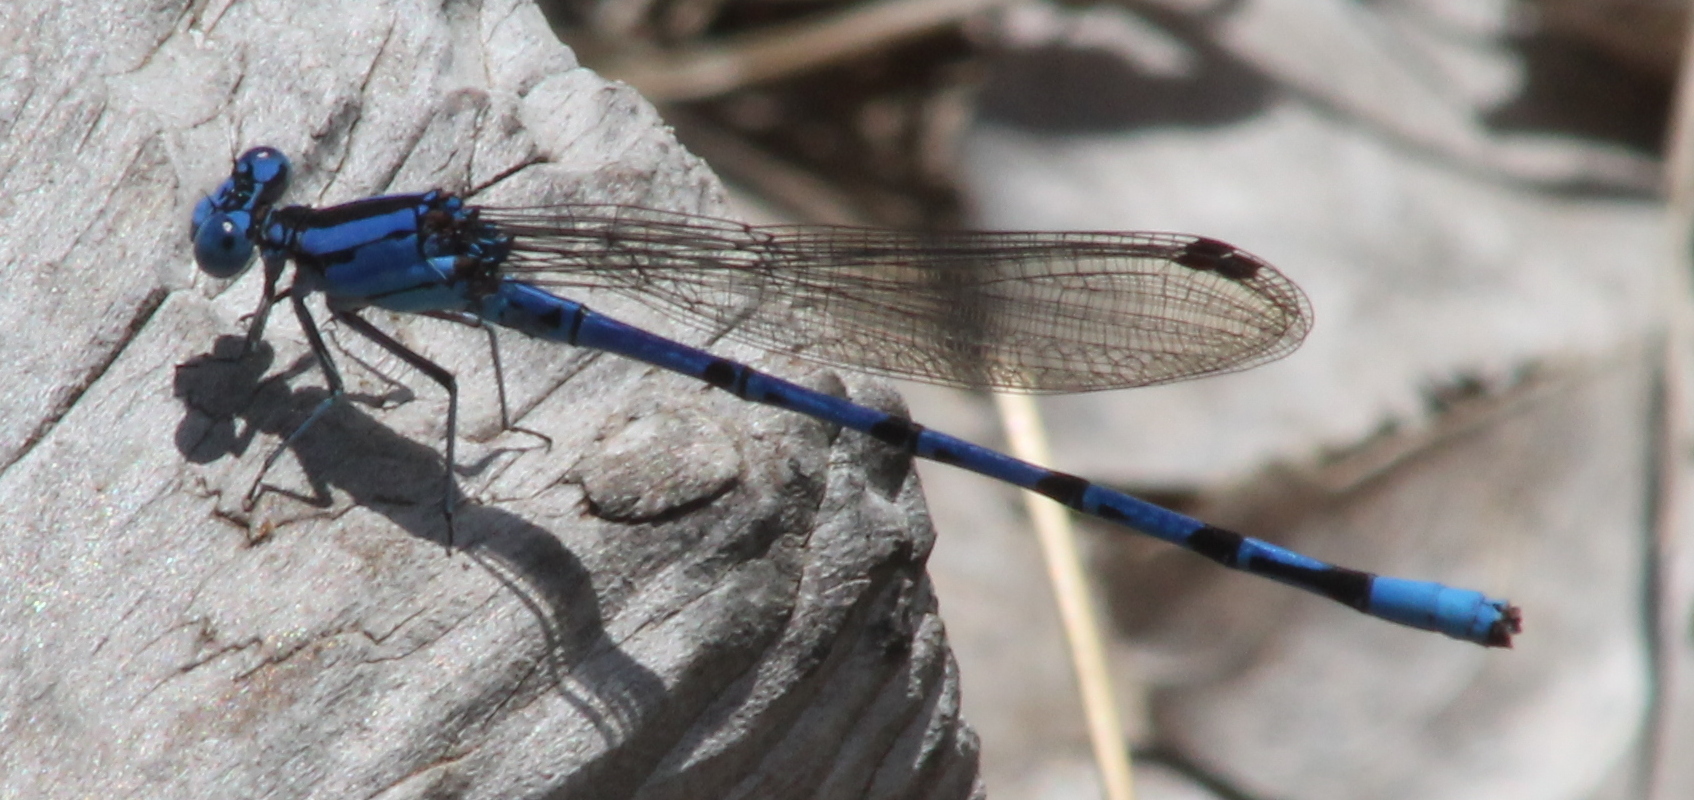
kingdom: Animalia
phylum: Arthropoda
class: Insecta
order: Odonata
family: Coenagrionidae
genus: Argia
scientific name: Argia funebris
